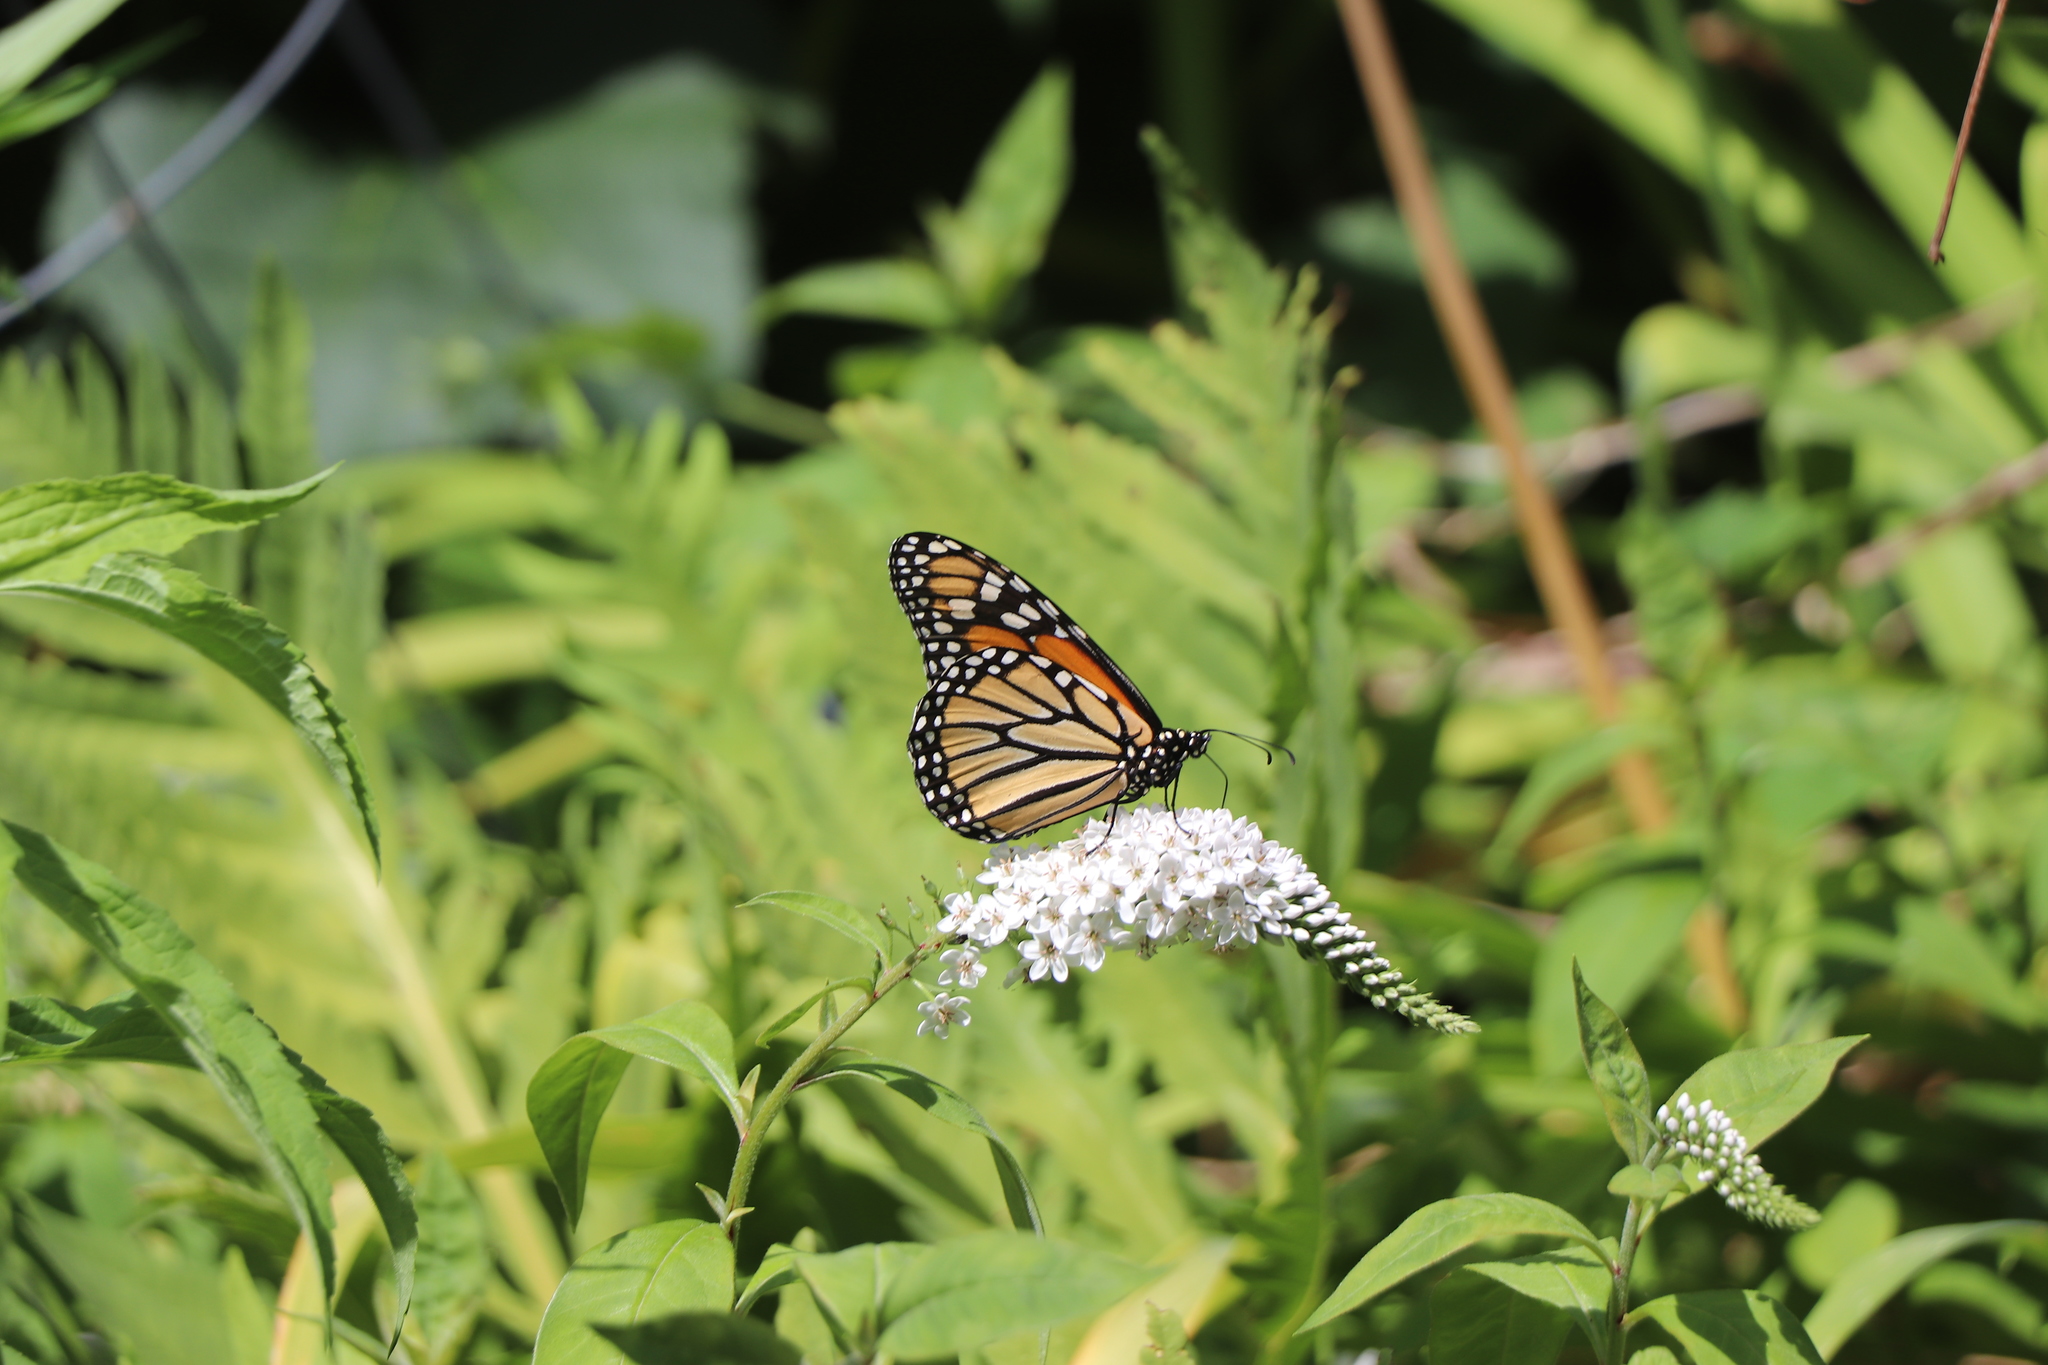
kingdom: Animalia
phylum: Arthropoda
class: Insecta
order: Lepidoptera
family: Nymphalidae
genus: Danaus
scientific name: Danaus plexippus
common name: Monarch
